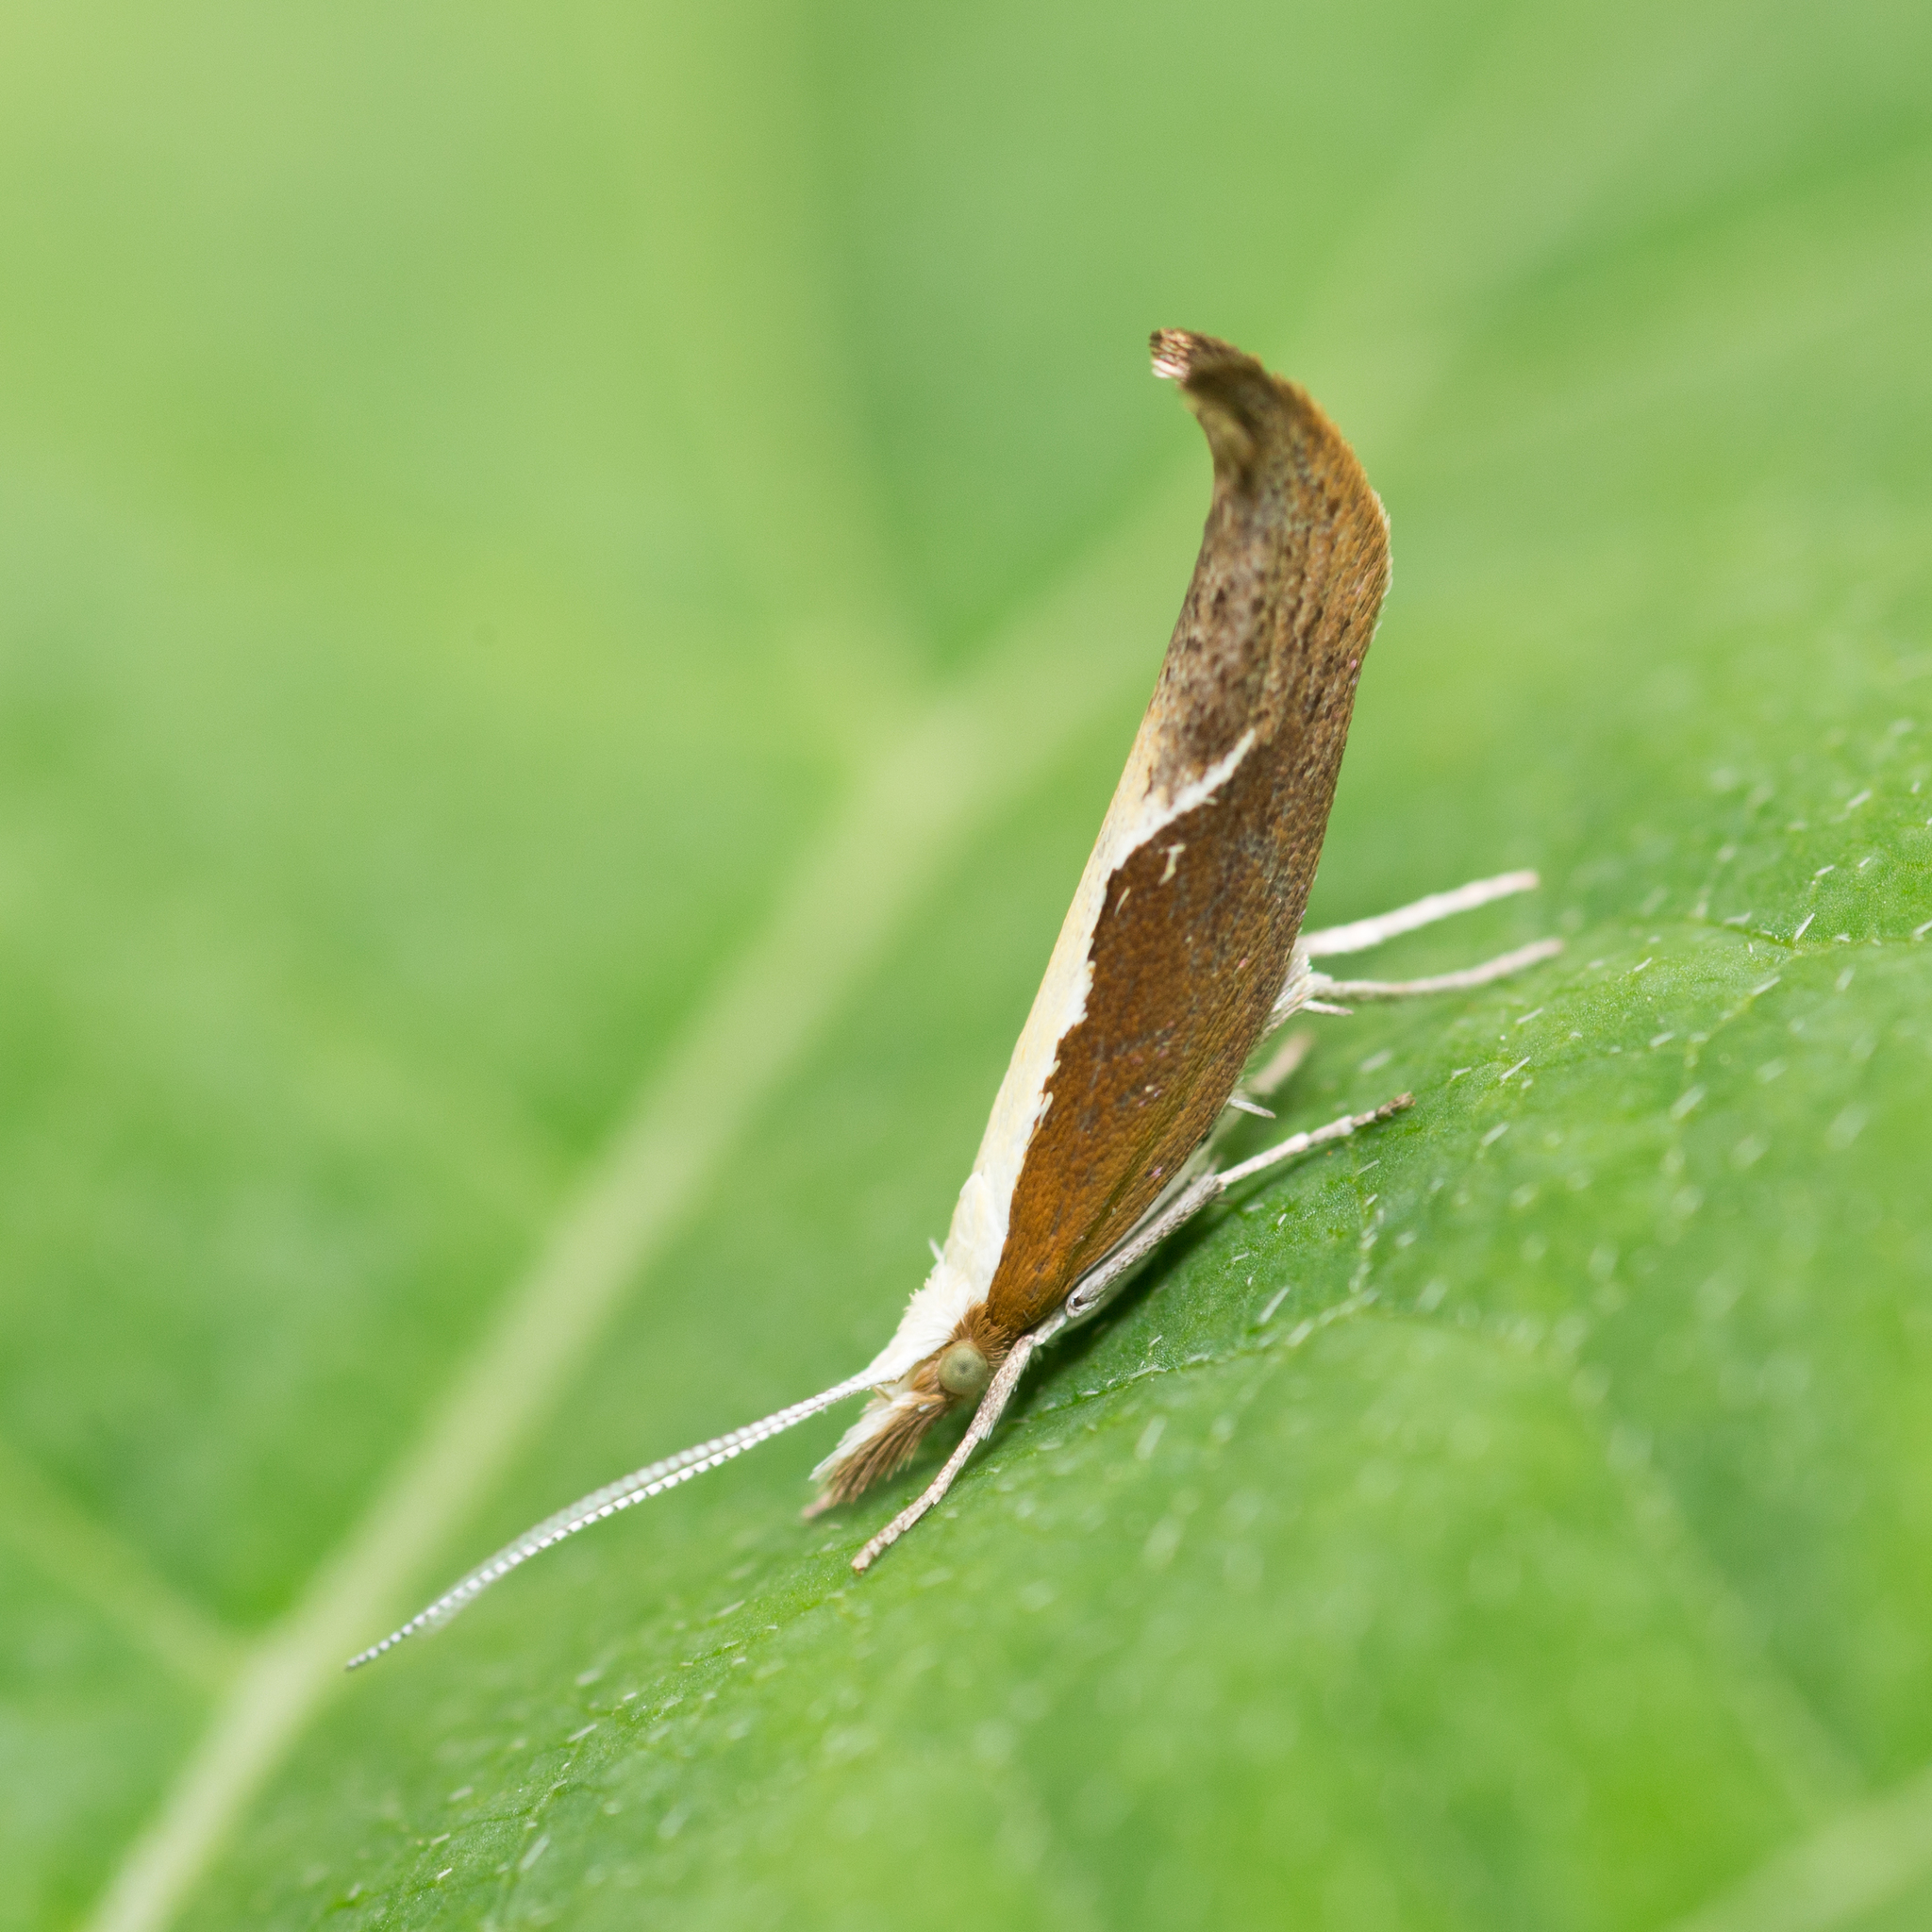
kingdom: Animalia
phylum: Arthropoda
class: Insecta
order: Lepidoptera
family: Ypsolophidae
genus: Ypsolopha
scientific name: Ypsolopha dentella
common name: Honeysuckle moth
